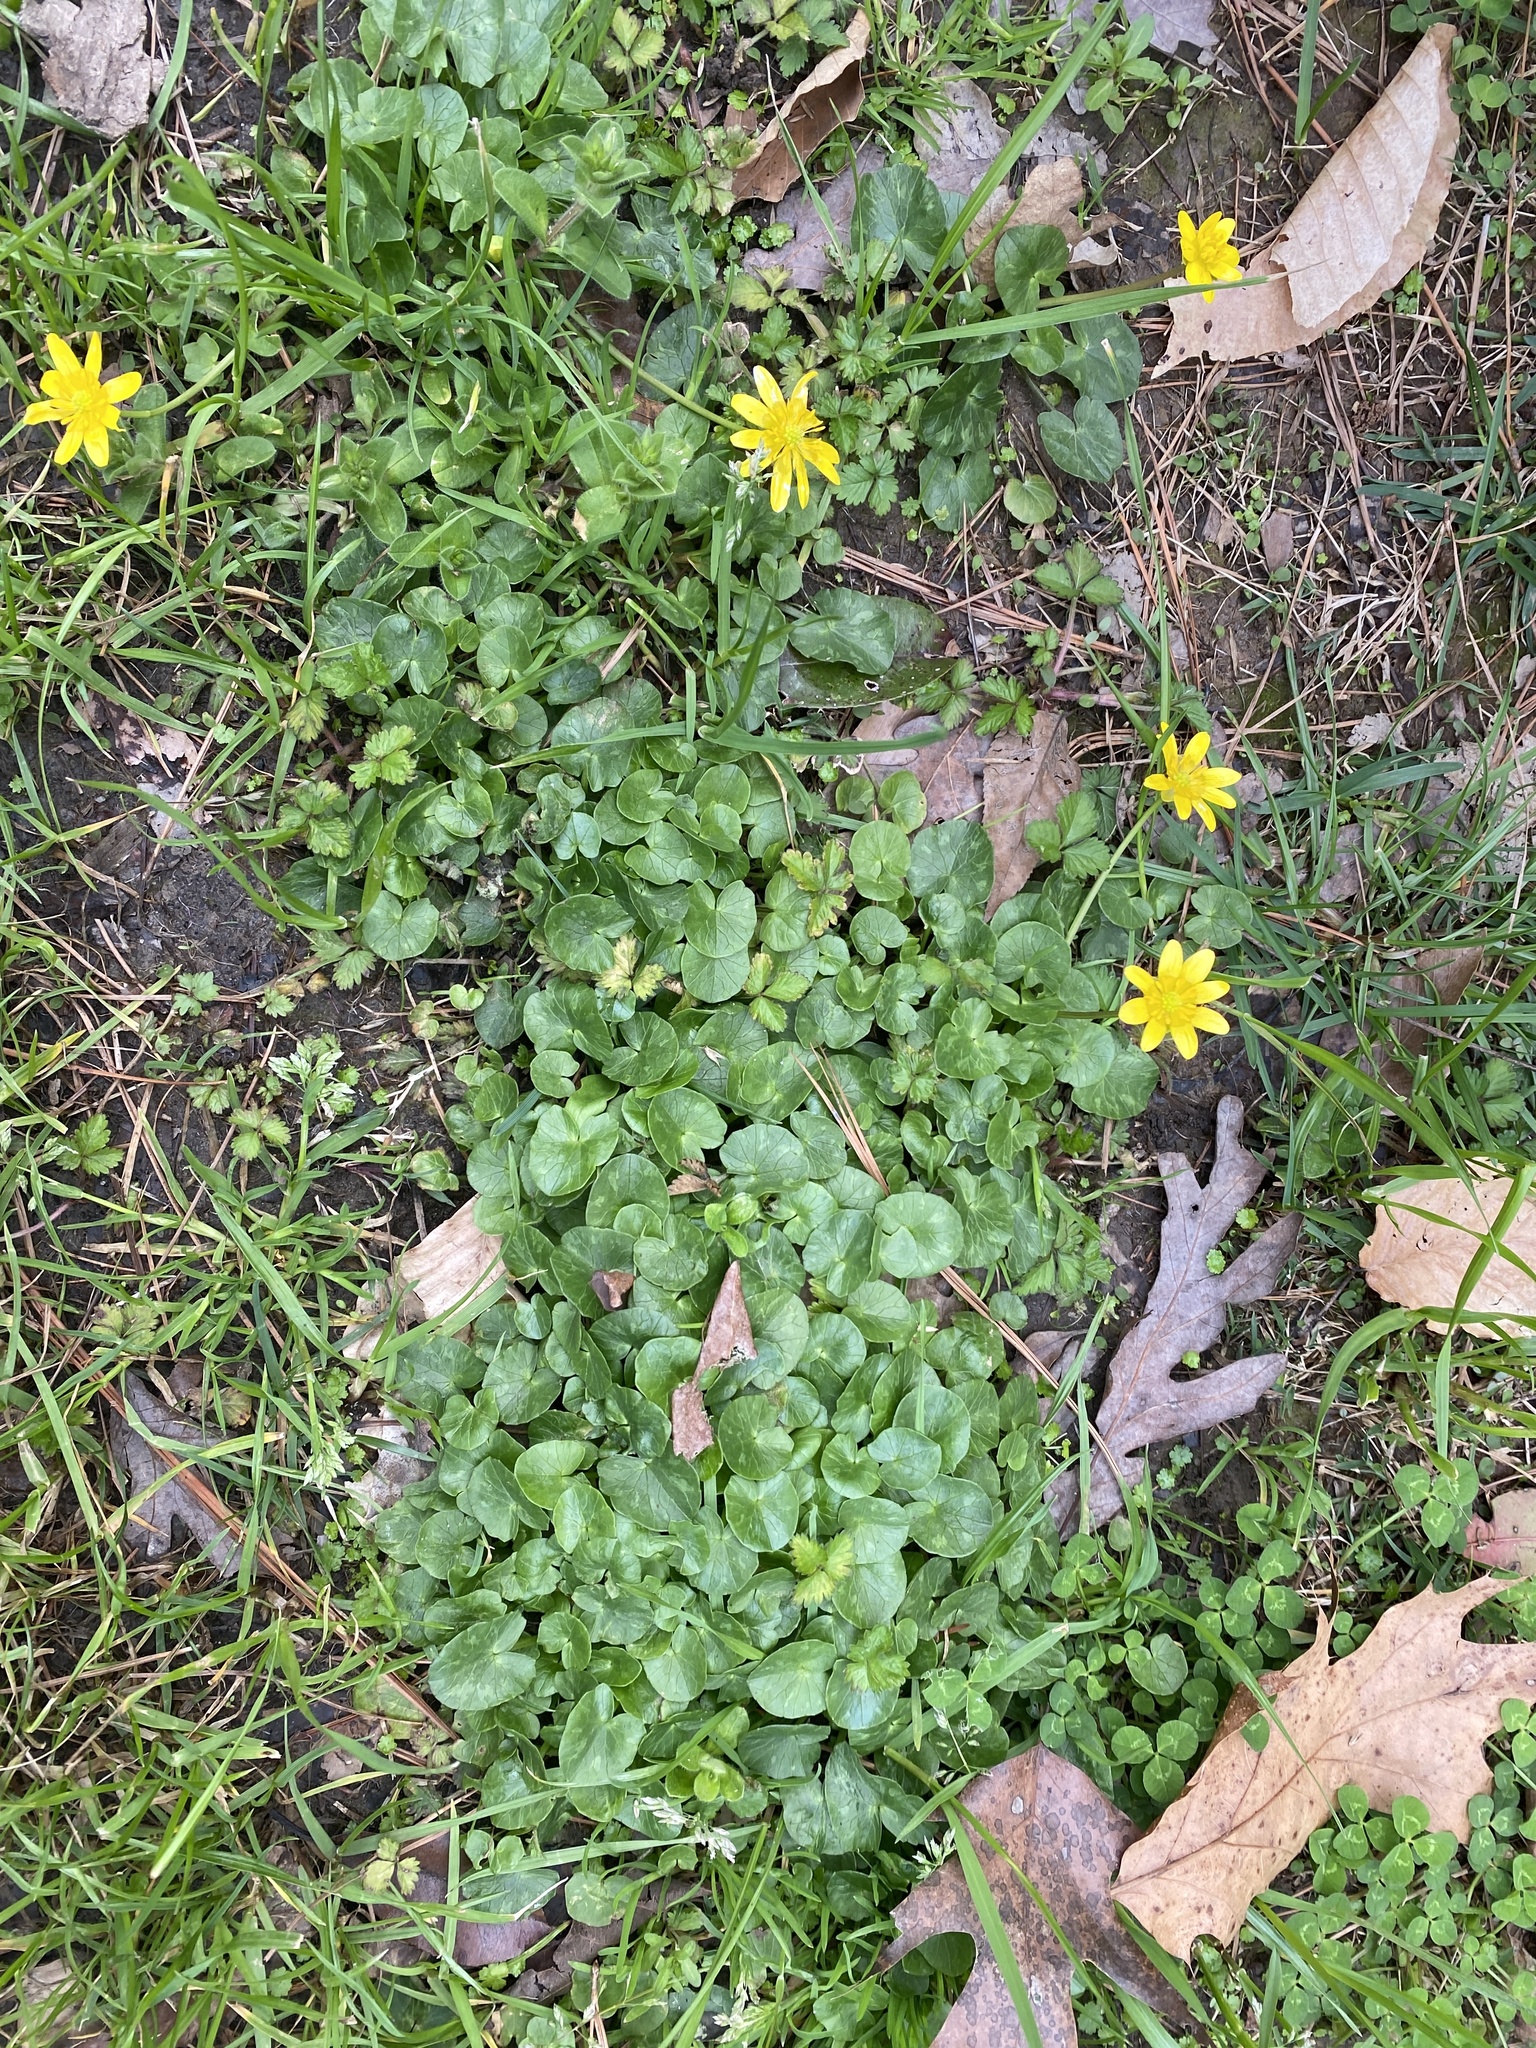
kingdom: Plantae
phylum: Tracheophyta
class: Magnoliopsida
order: Ranunculales
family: Ranunculaceae
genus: Ficaria
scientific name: Ficaria verna
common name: Lesser celandine
